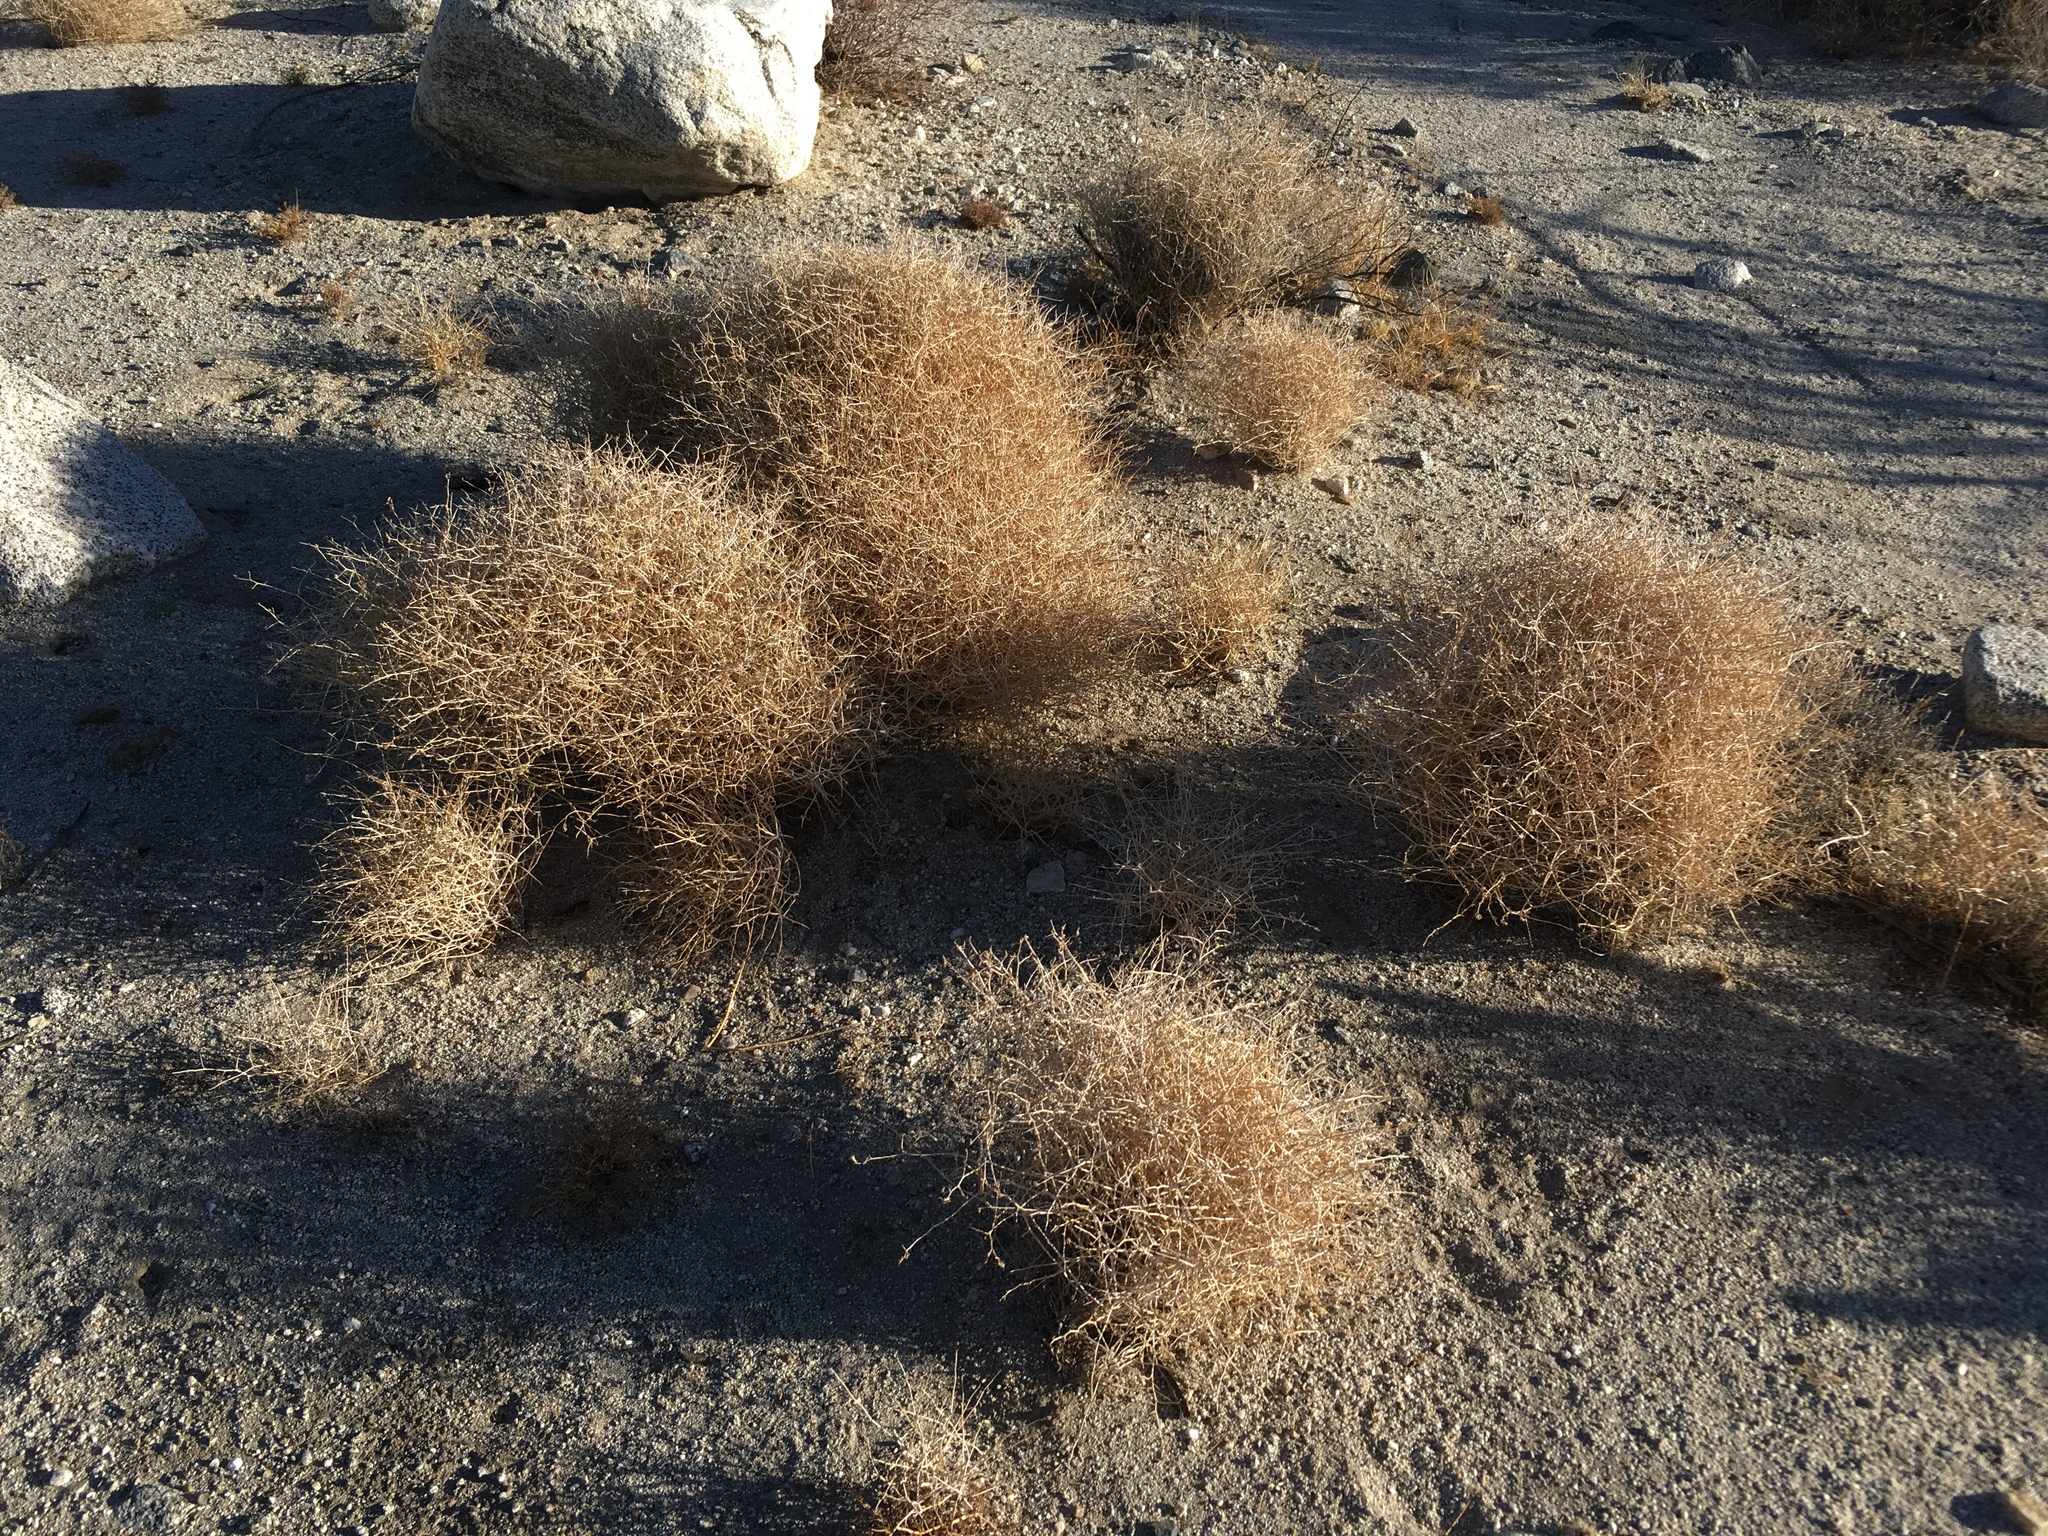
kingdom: Plantae
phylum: Tracheophyta
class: Magnoliopsida
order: Asterales
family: Asteraceae
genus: Stephanomeria
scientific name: Stephanomeria pauciflora
